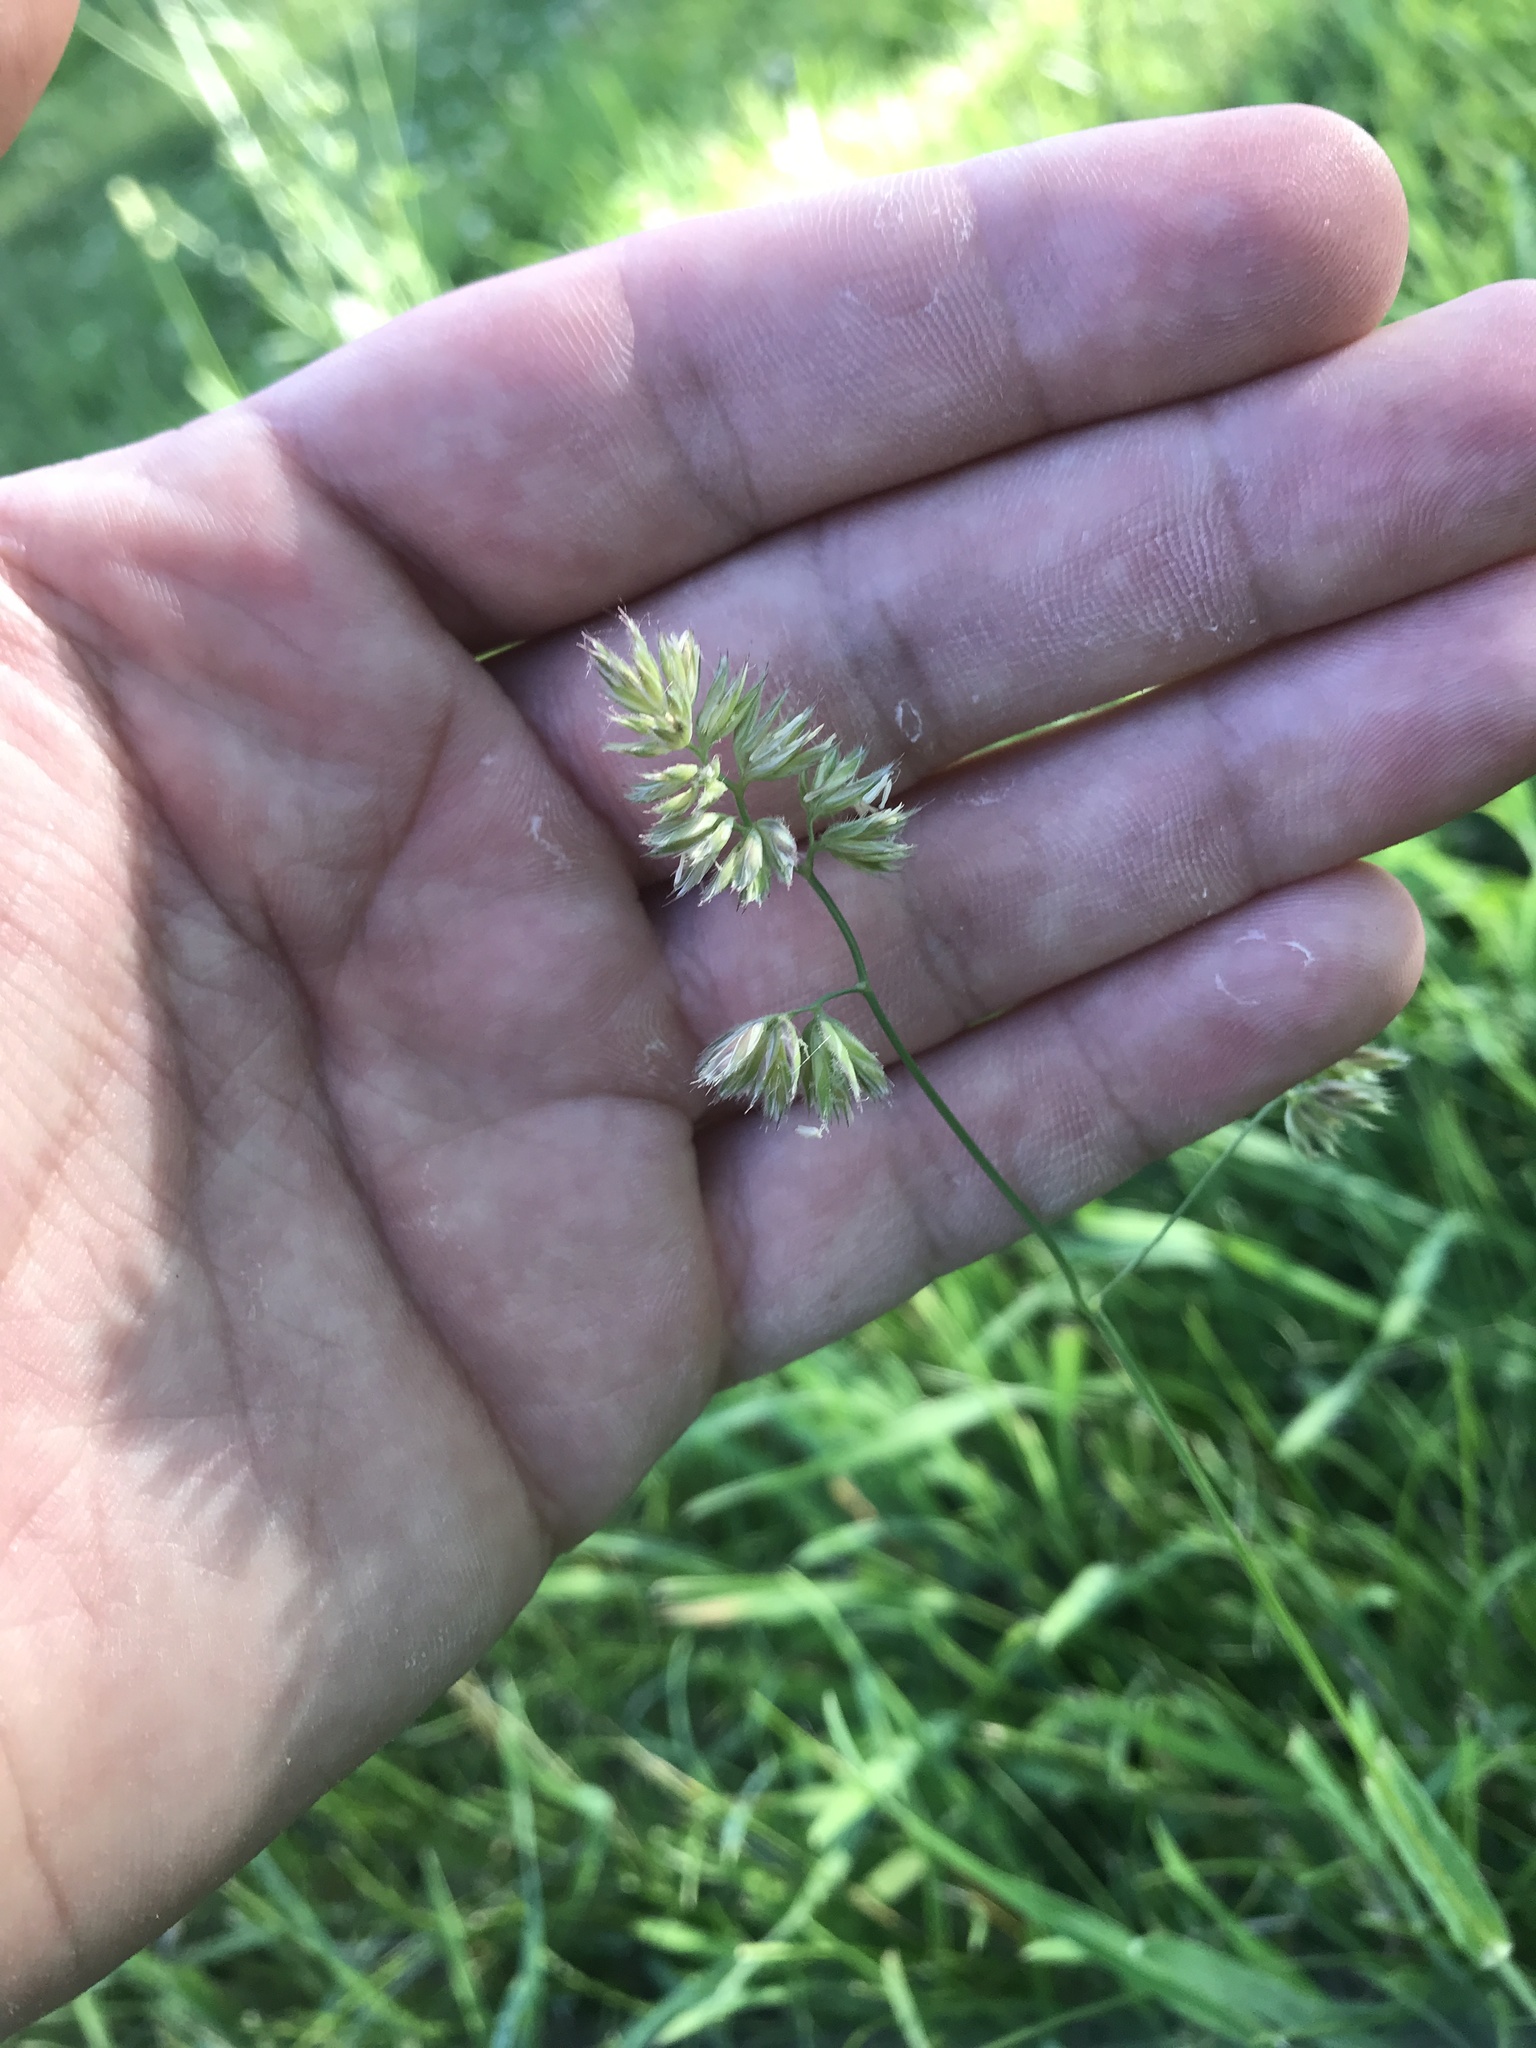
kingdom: Plantae
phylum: Tracheophyta
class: Liliopsida
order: Poales
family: Poaceae
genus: Dactylis
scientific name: Dactylis glomerata
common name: Orchardgrass
